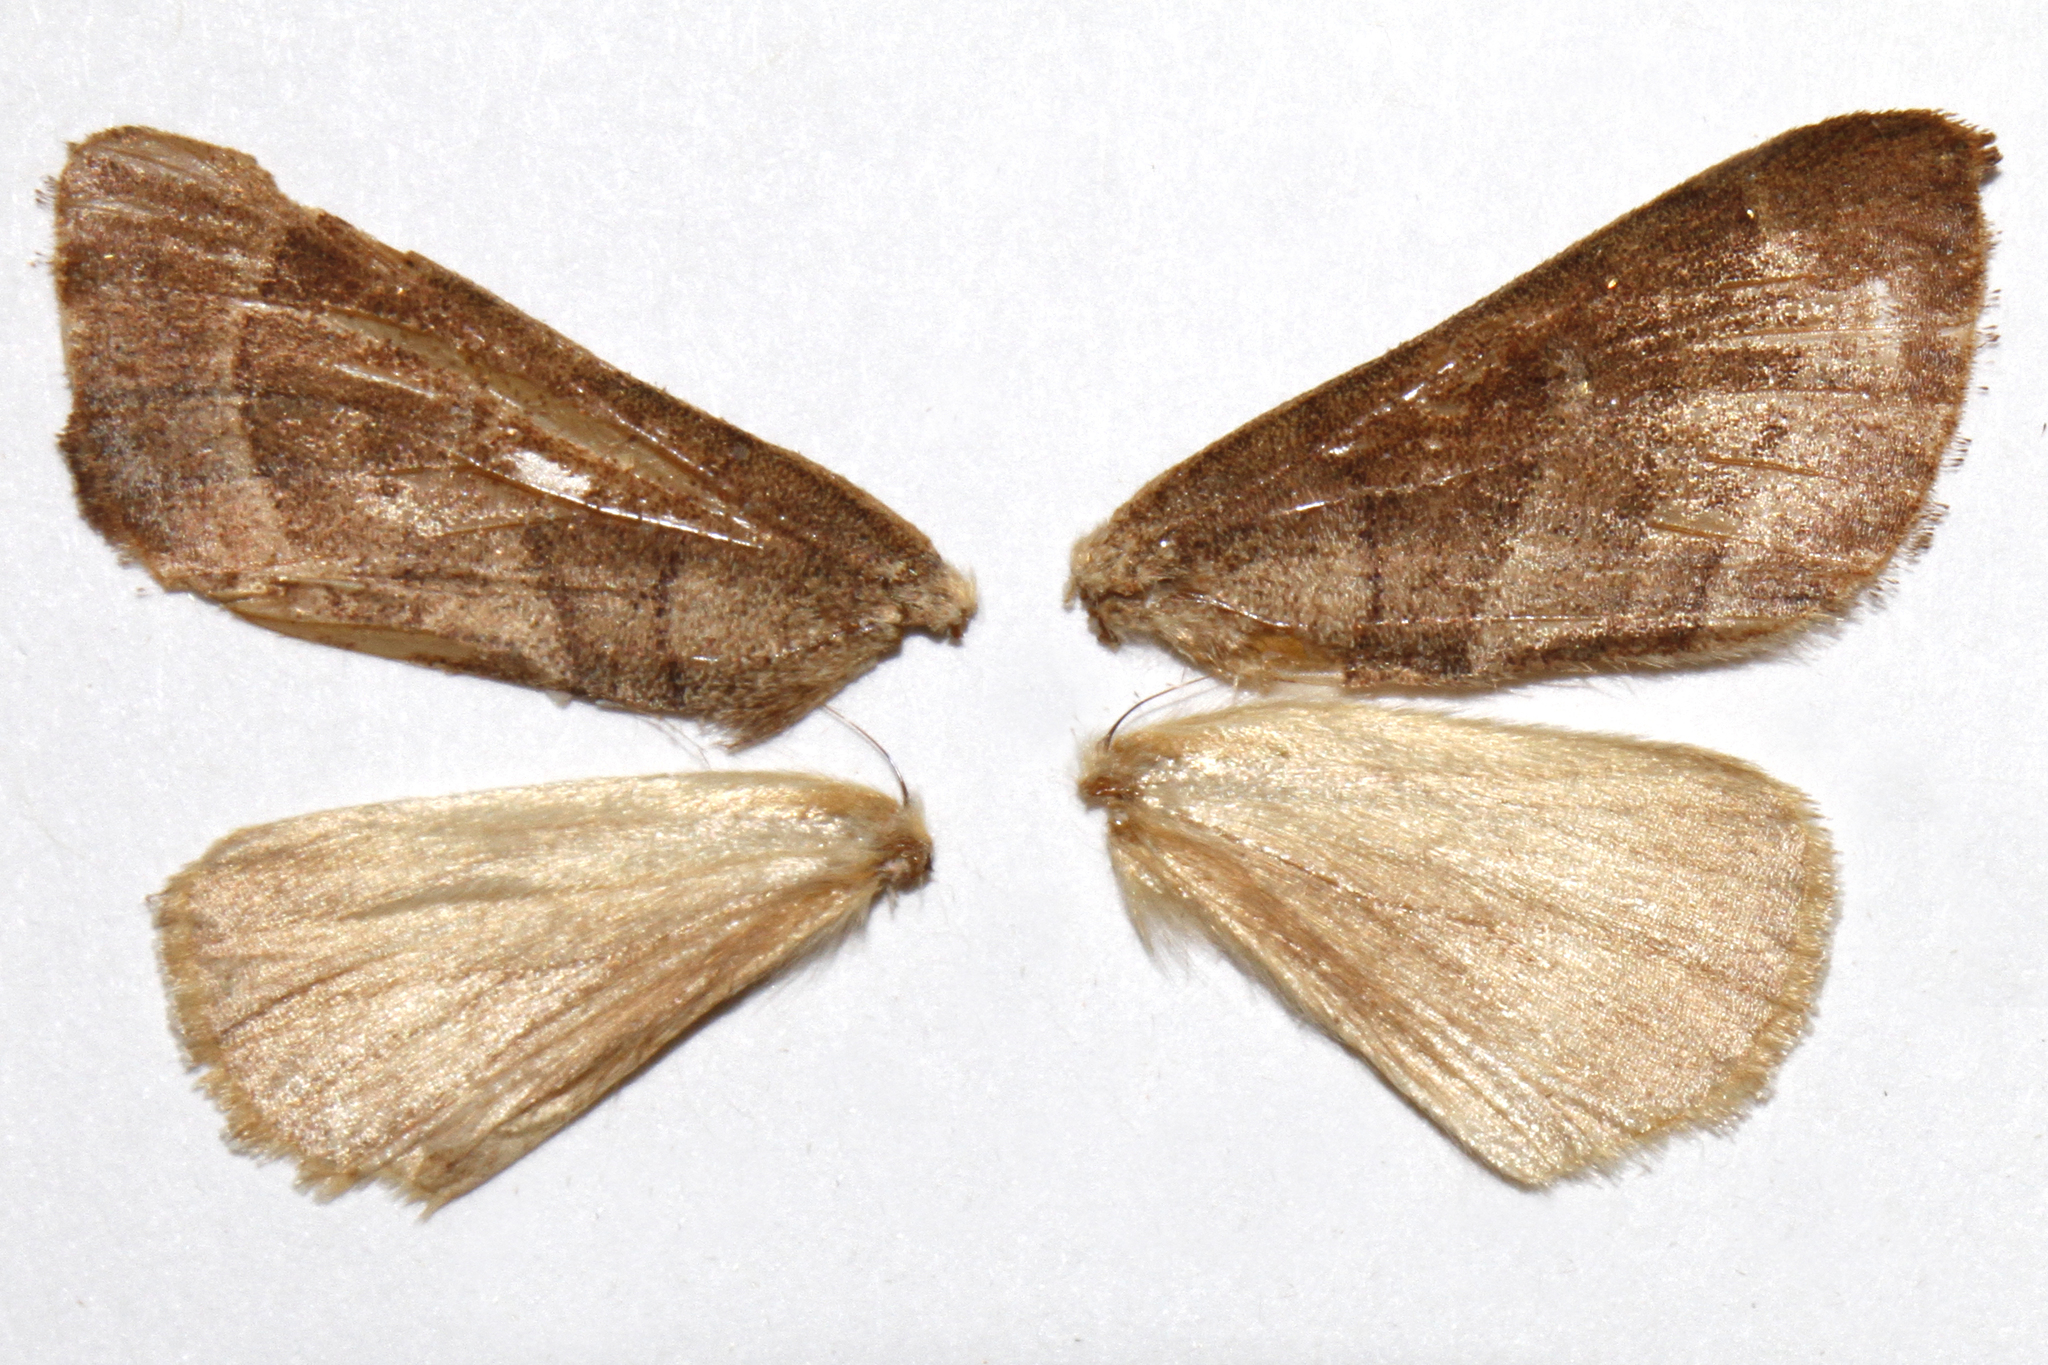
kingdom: Animalia
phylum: Arthropoda
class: Insecta
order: Lepidoptera
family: Notodontidae
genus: Datana
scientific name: Datana integerrima
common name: Walnut caterpillar
